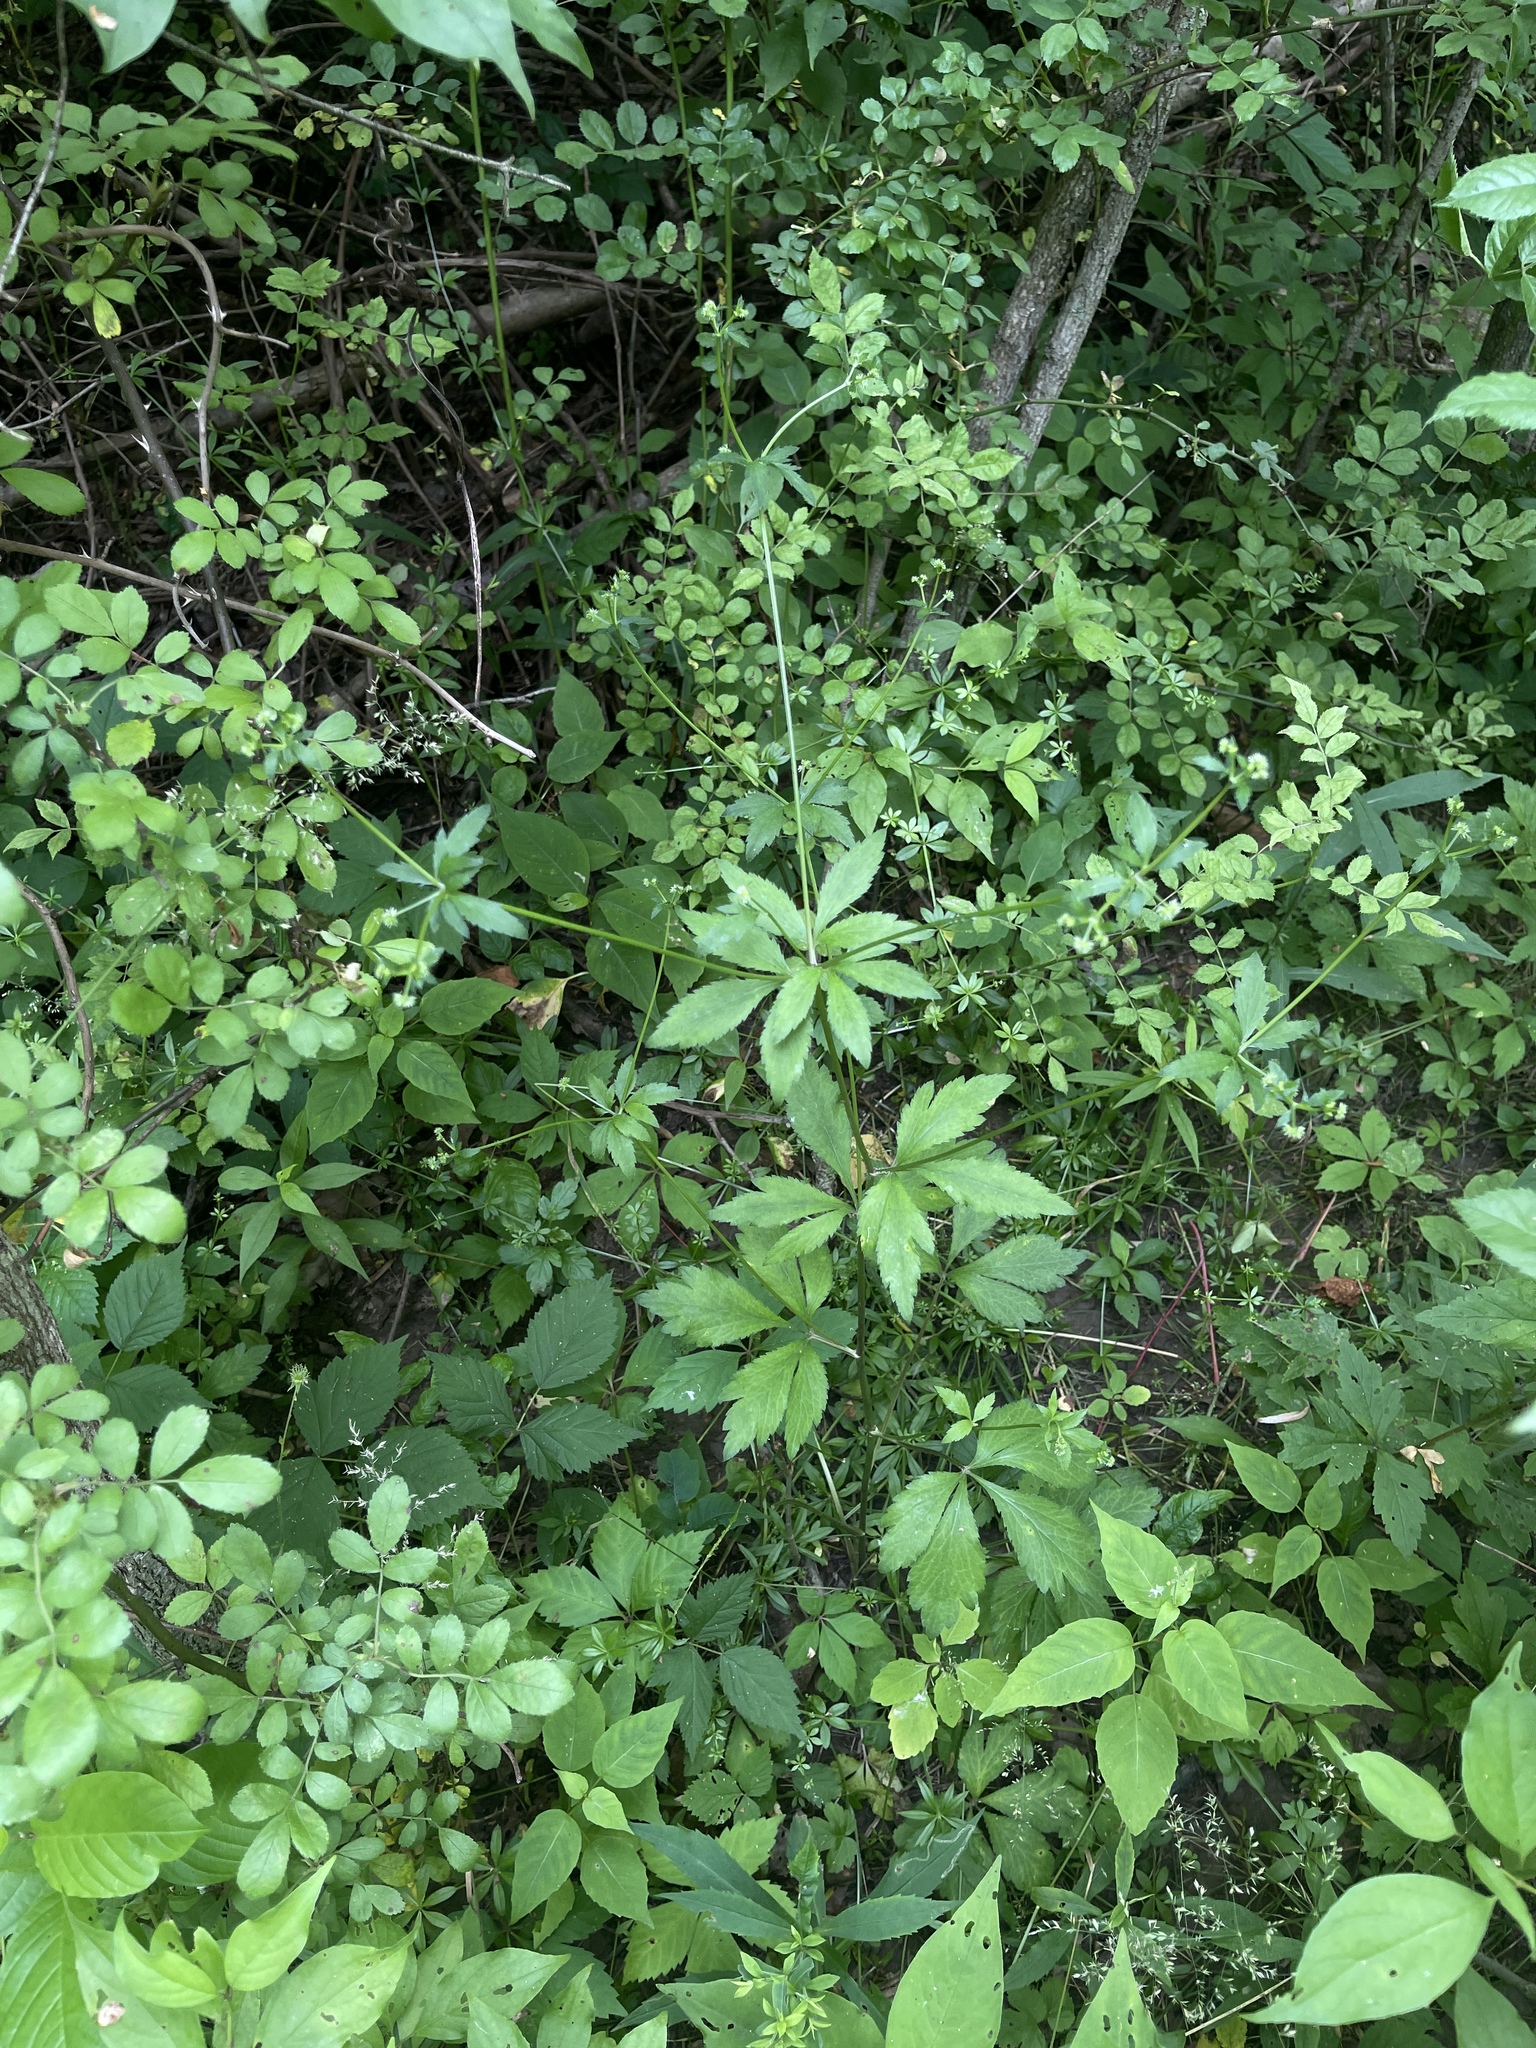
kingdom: Plantae
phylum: Tracheophyta
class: Magnoliopsida
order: Apiales
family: Apiaceae
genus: Sanicula
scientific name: Sanicula canadensis
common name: Canada sanicle
